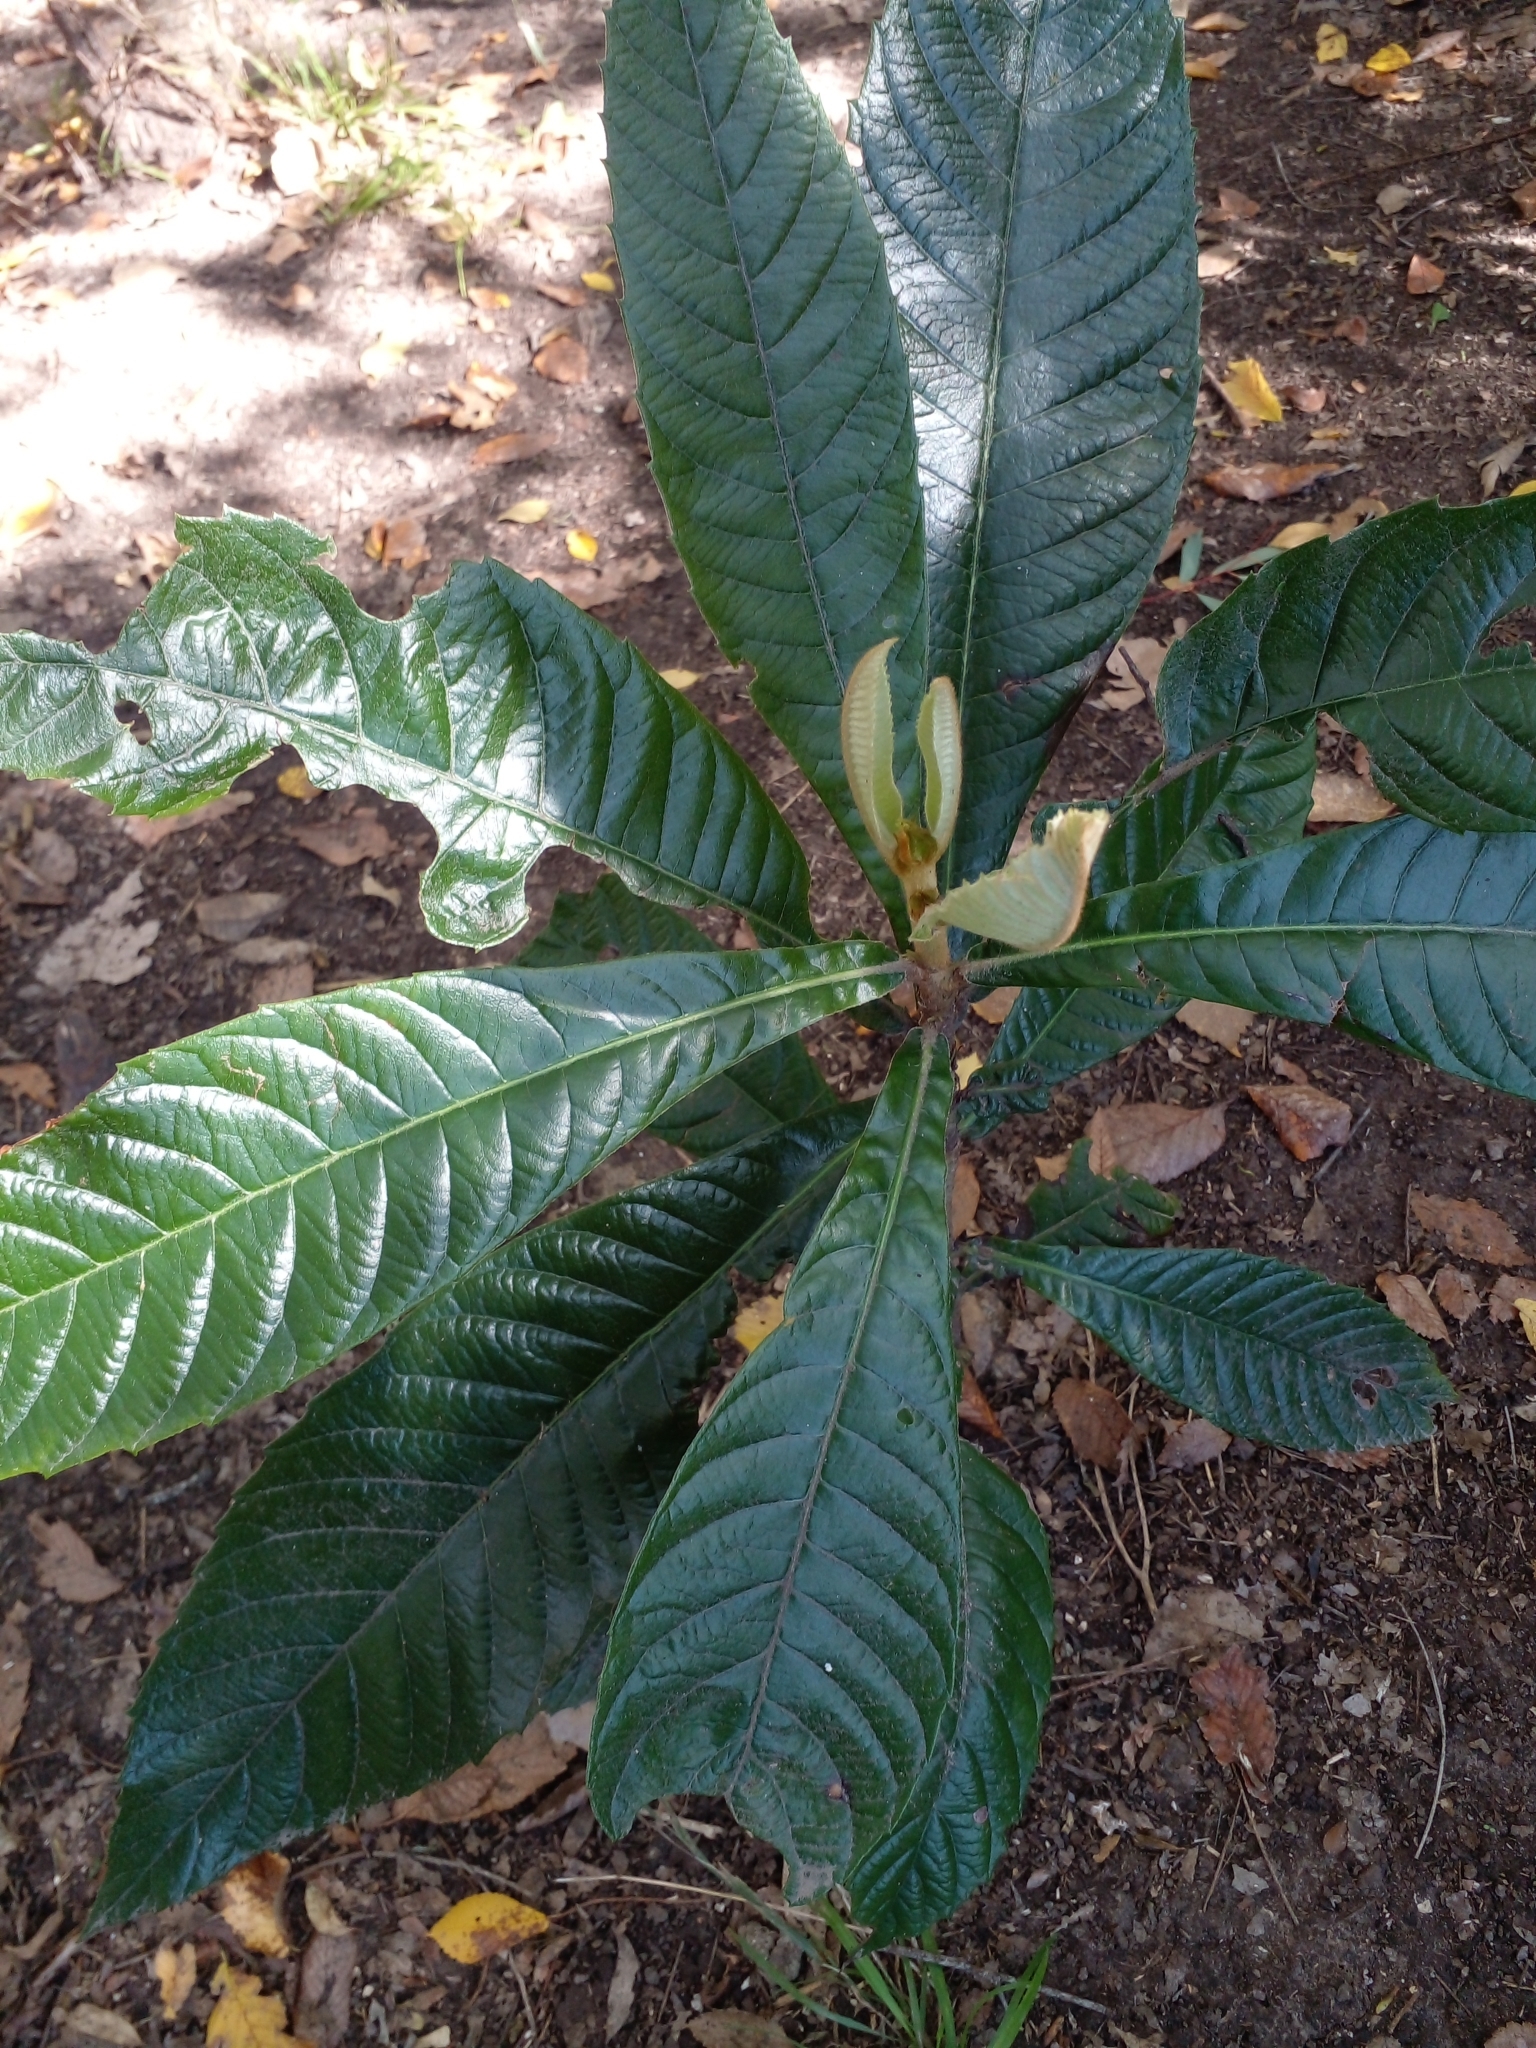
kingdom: Plantae
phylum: Tracheophyta
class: Magnoliopsida
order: Rosales
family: Rosaceae
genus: Rhaphiolepis
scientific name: Rhaphiolepis bibas
